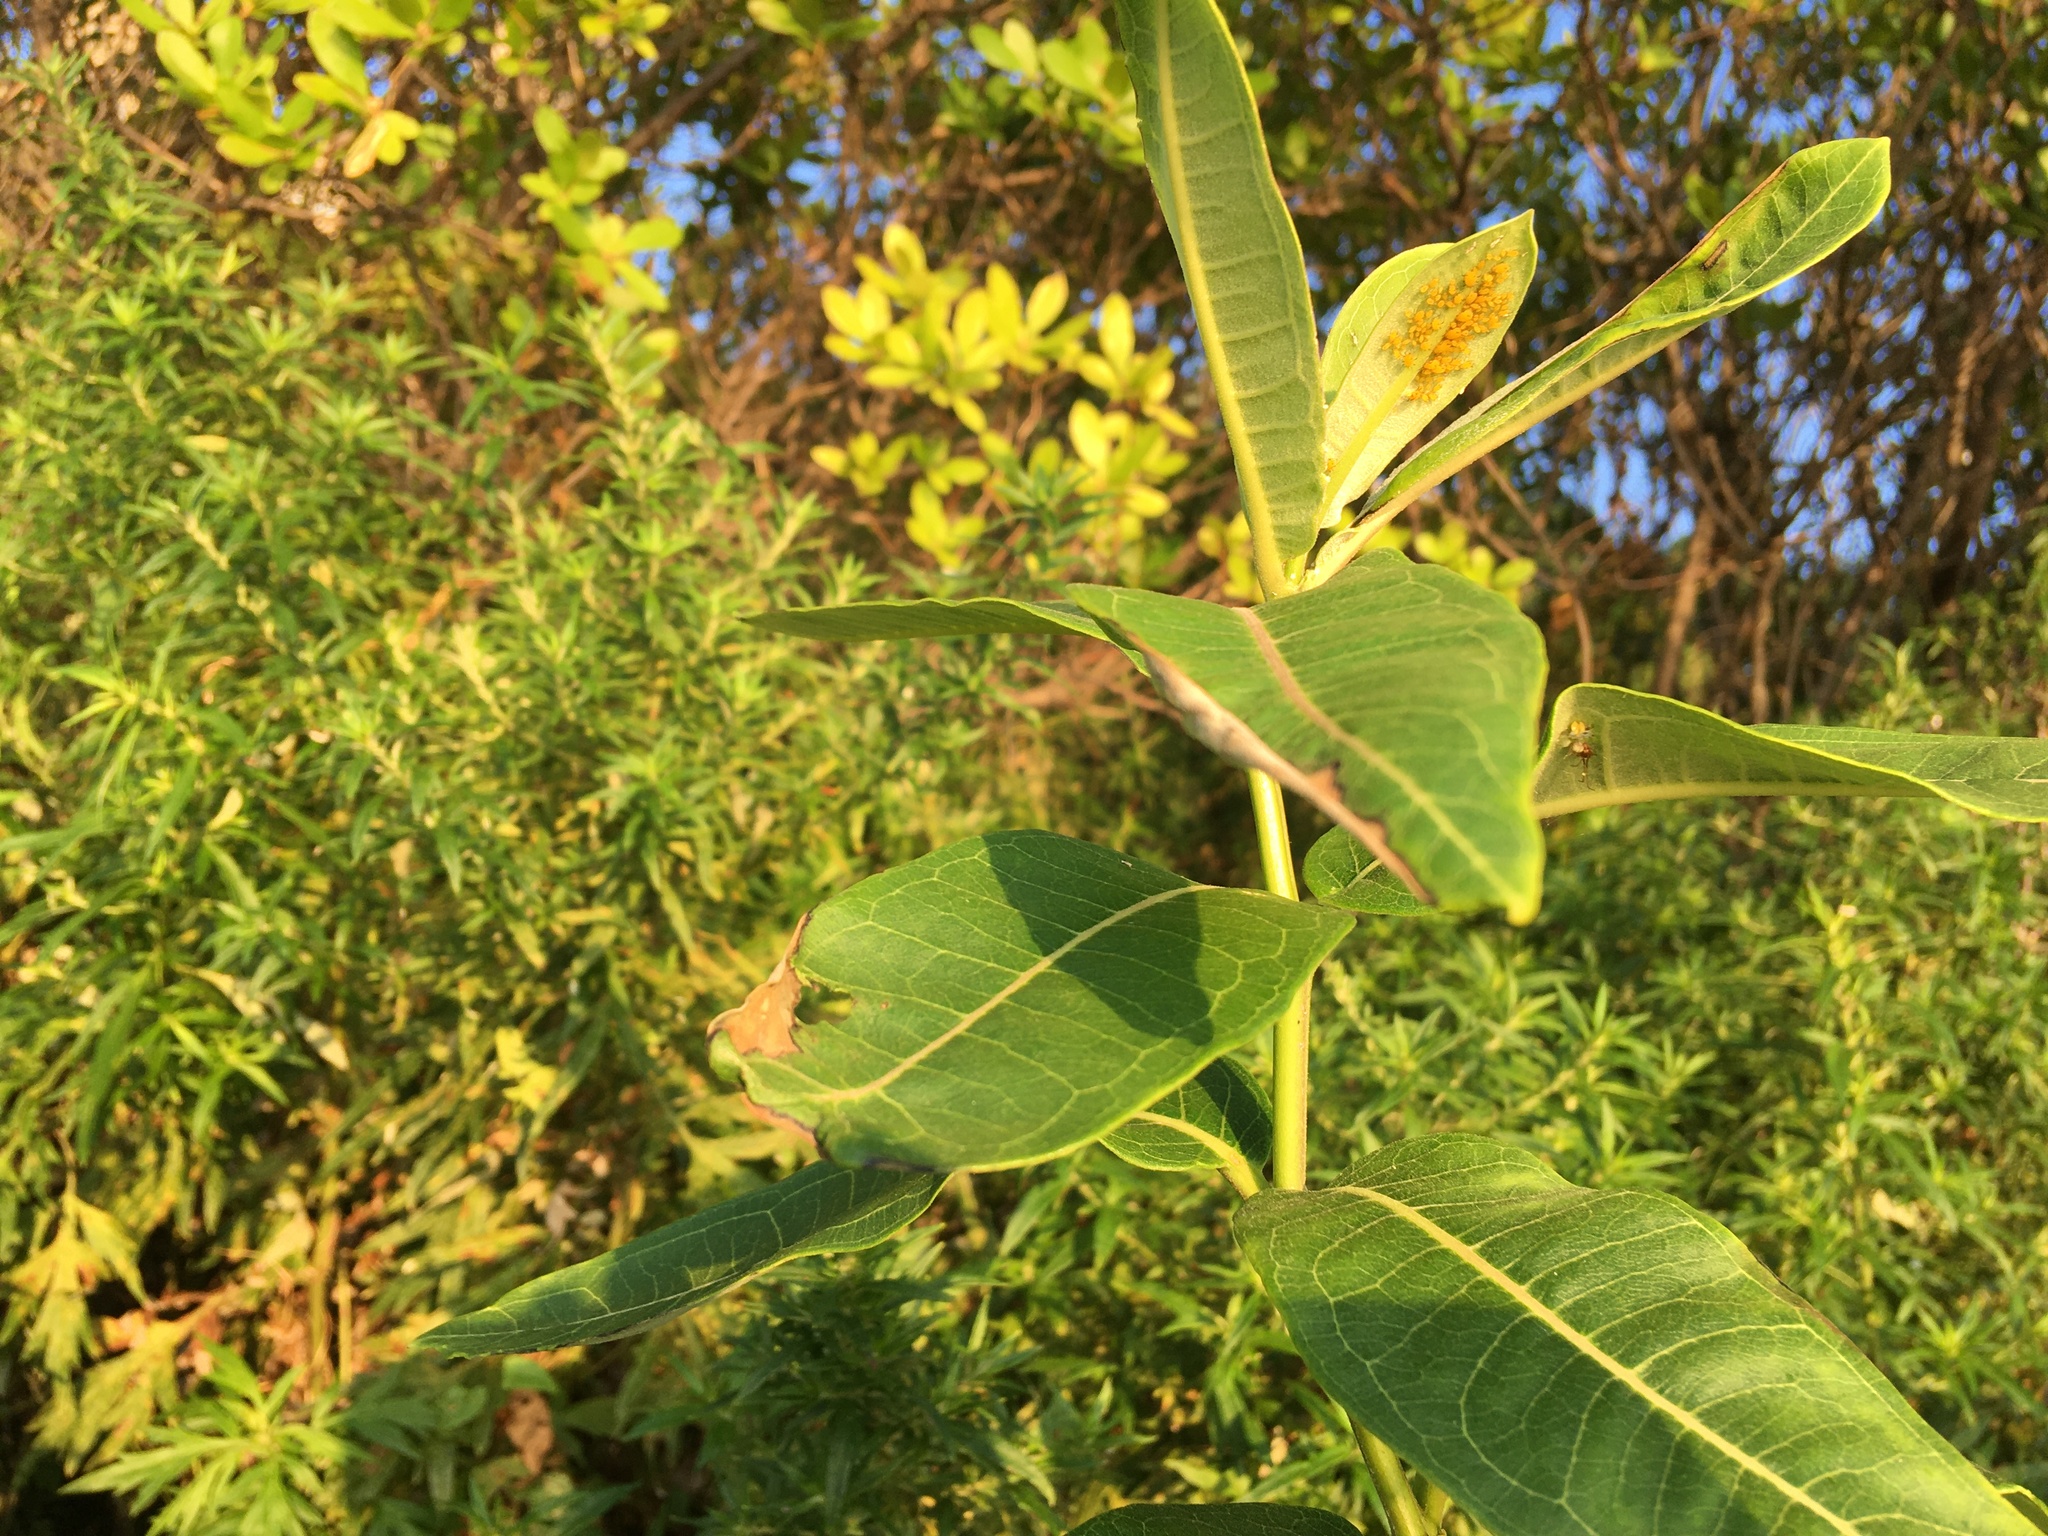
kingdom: Plantae
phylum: Tracheophyta
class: Magnoliopsida
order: Gentianales
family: Apocynaceae
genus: Asclepias
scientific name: Asclepias syriaca
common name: Common milkweed
